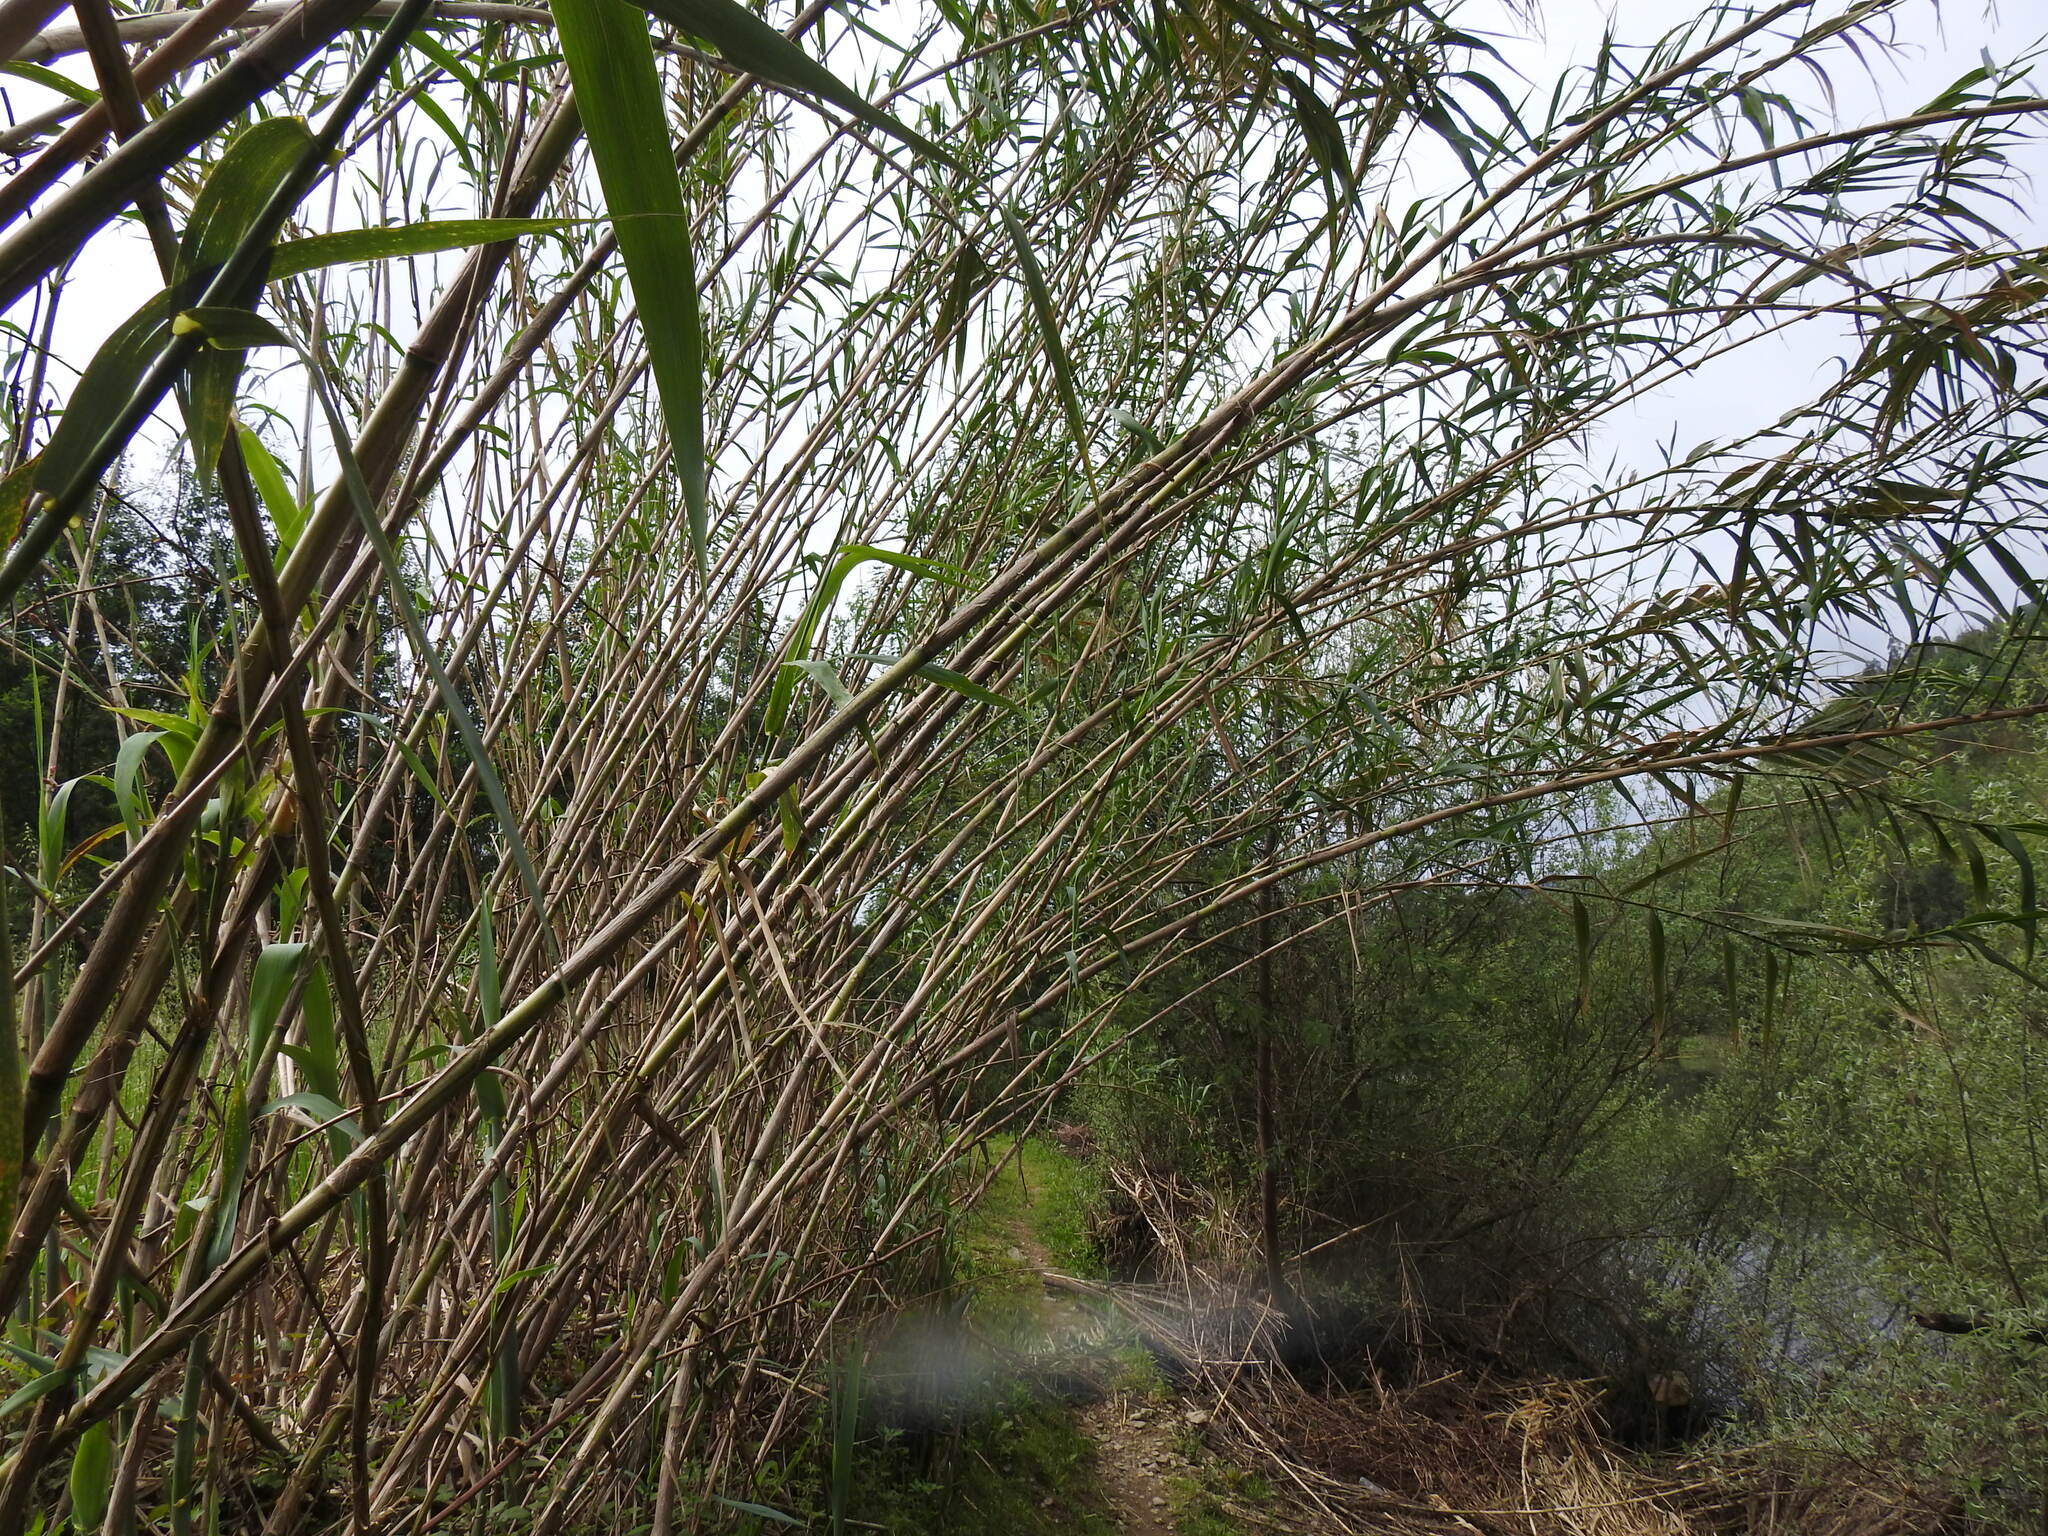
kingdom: Plantae
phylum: Tracheophyta
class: Liliopsida
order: Poales
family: Poaceae
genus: Arundo
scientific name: Arundo donax
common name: Giant reed
